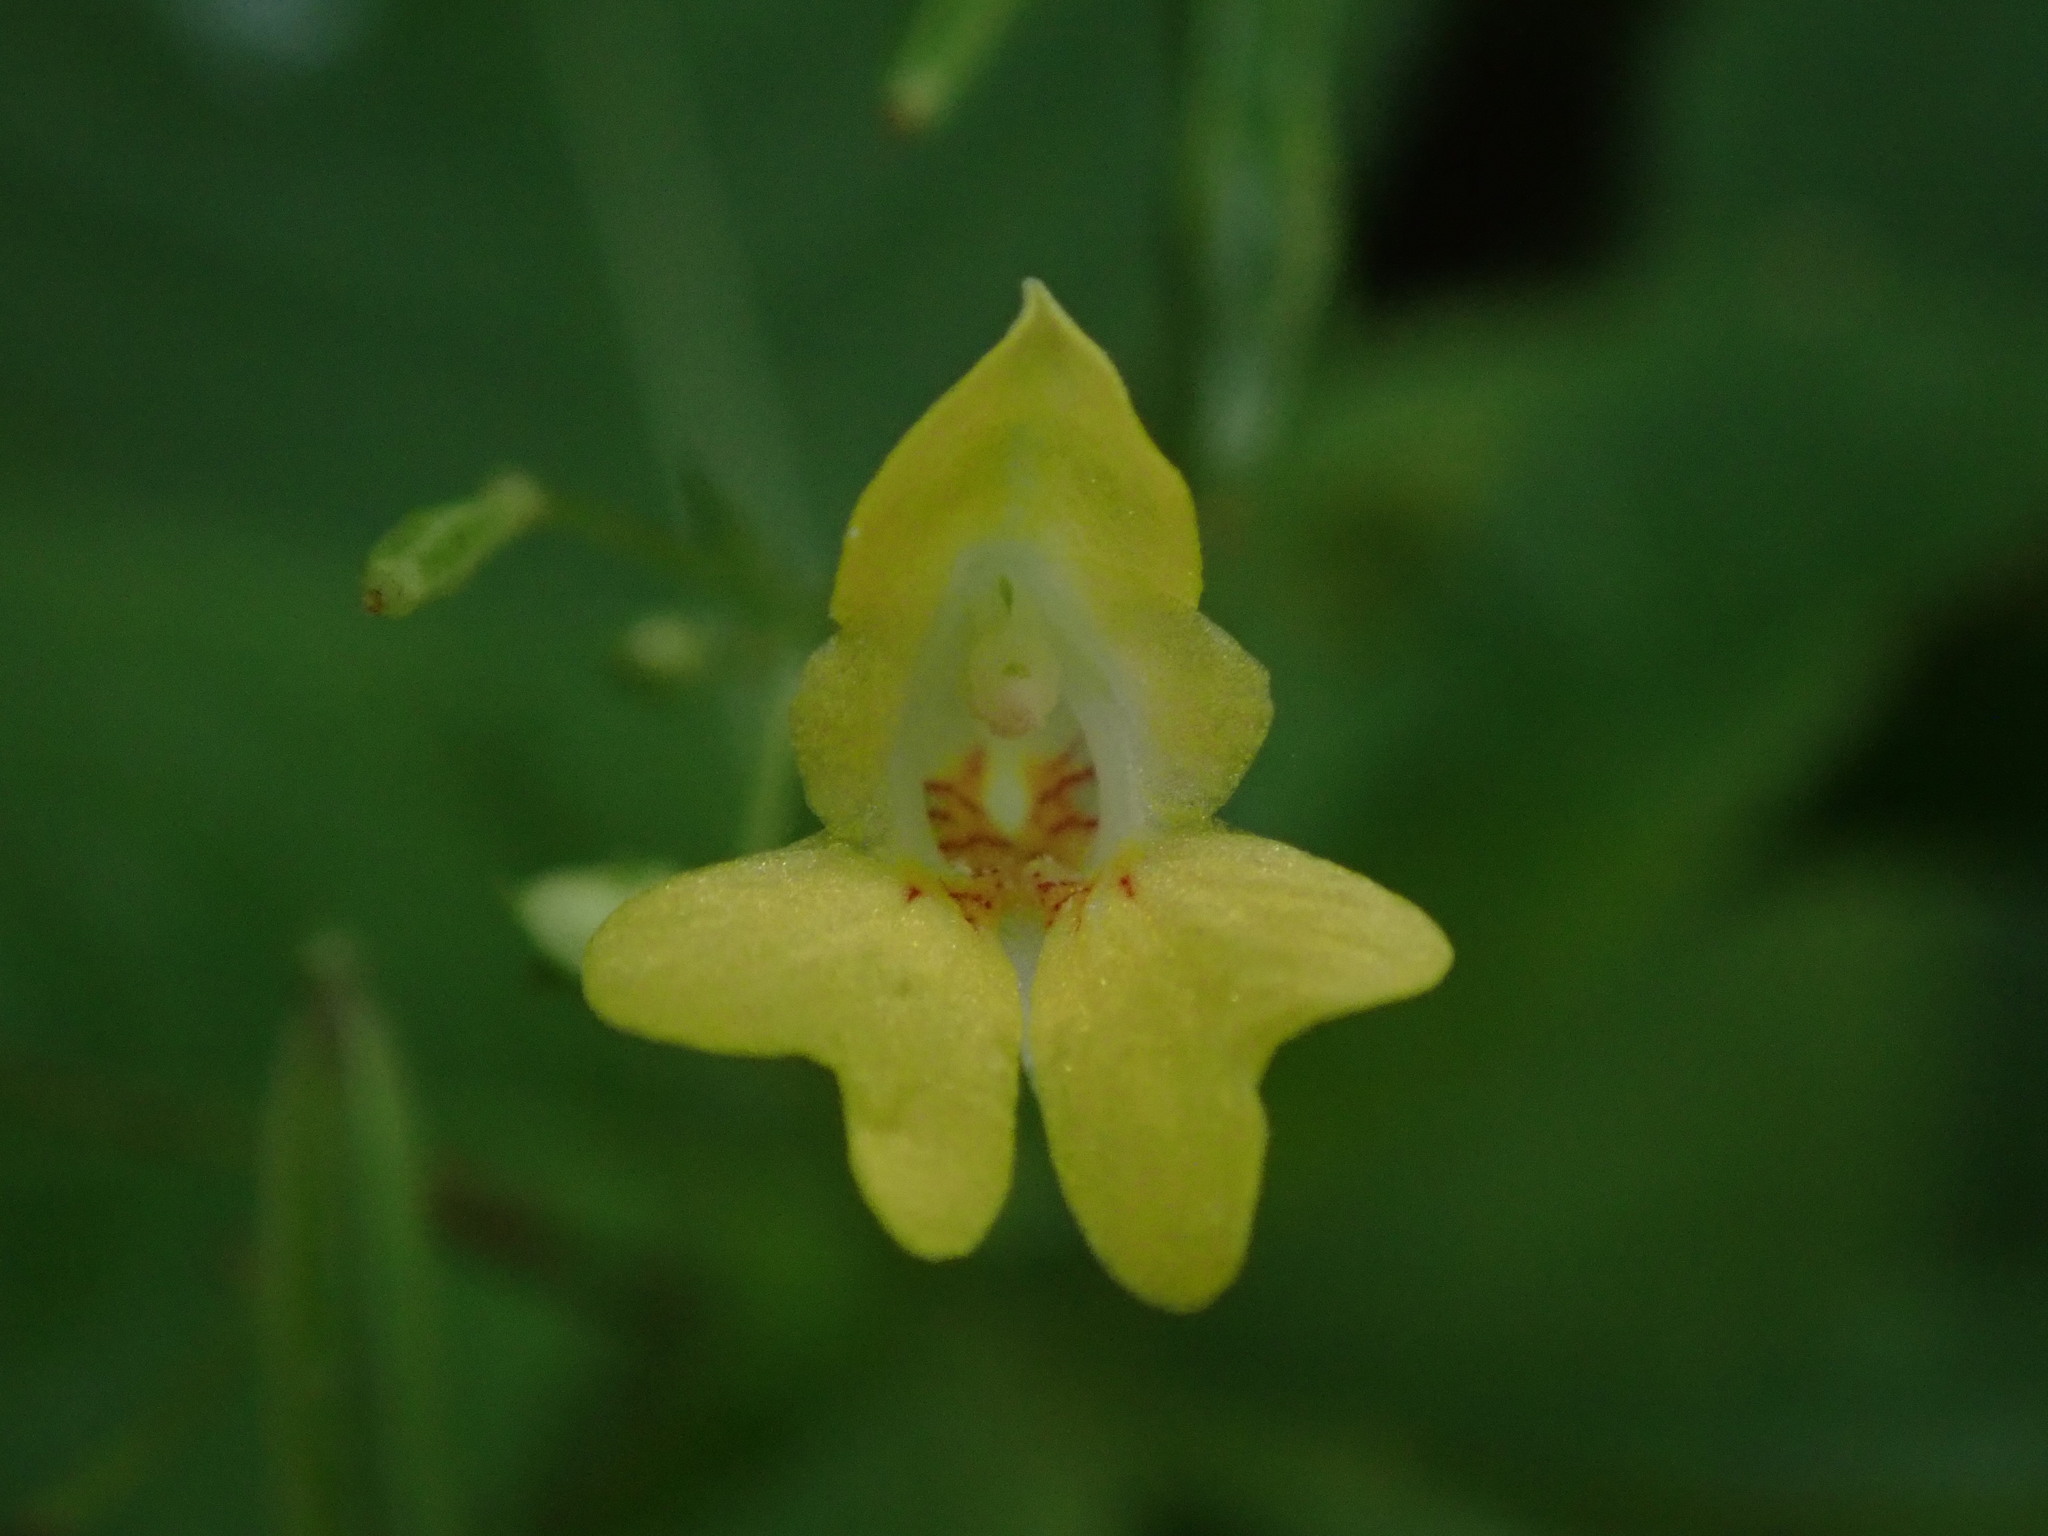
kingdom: Plantae
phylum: Tracheophyta
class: Magnoliopsida
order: Ericales
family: Balsaminaceae
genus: Impatiens
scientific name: Impatiens parviflora
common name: Small balsam
